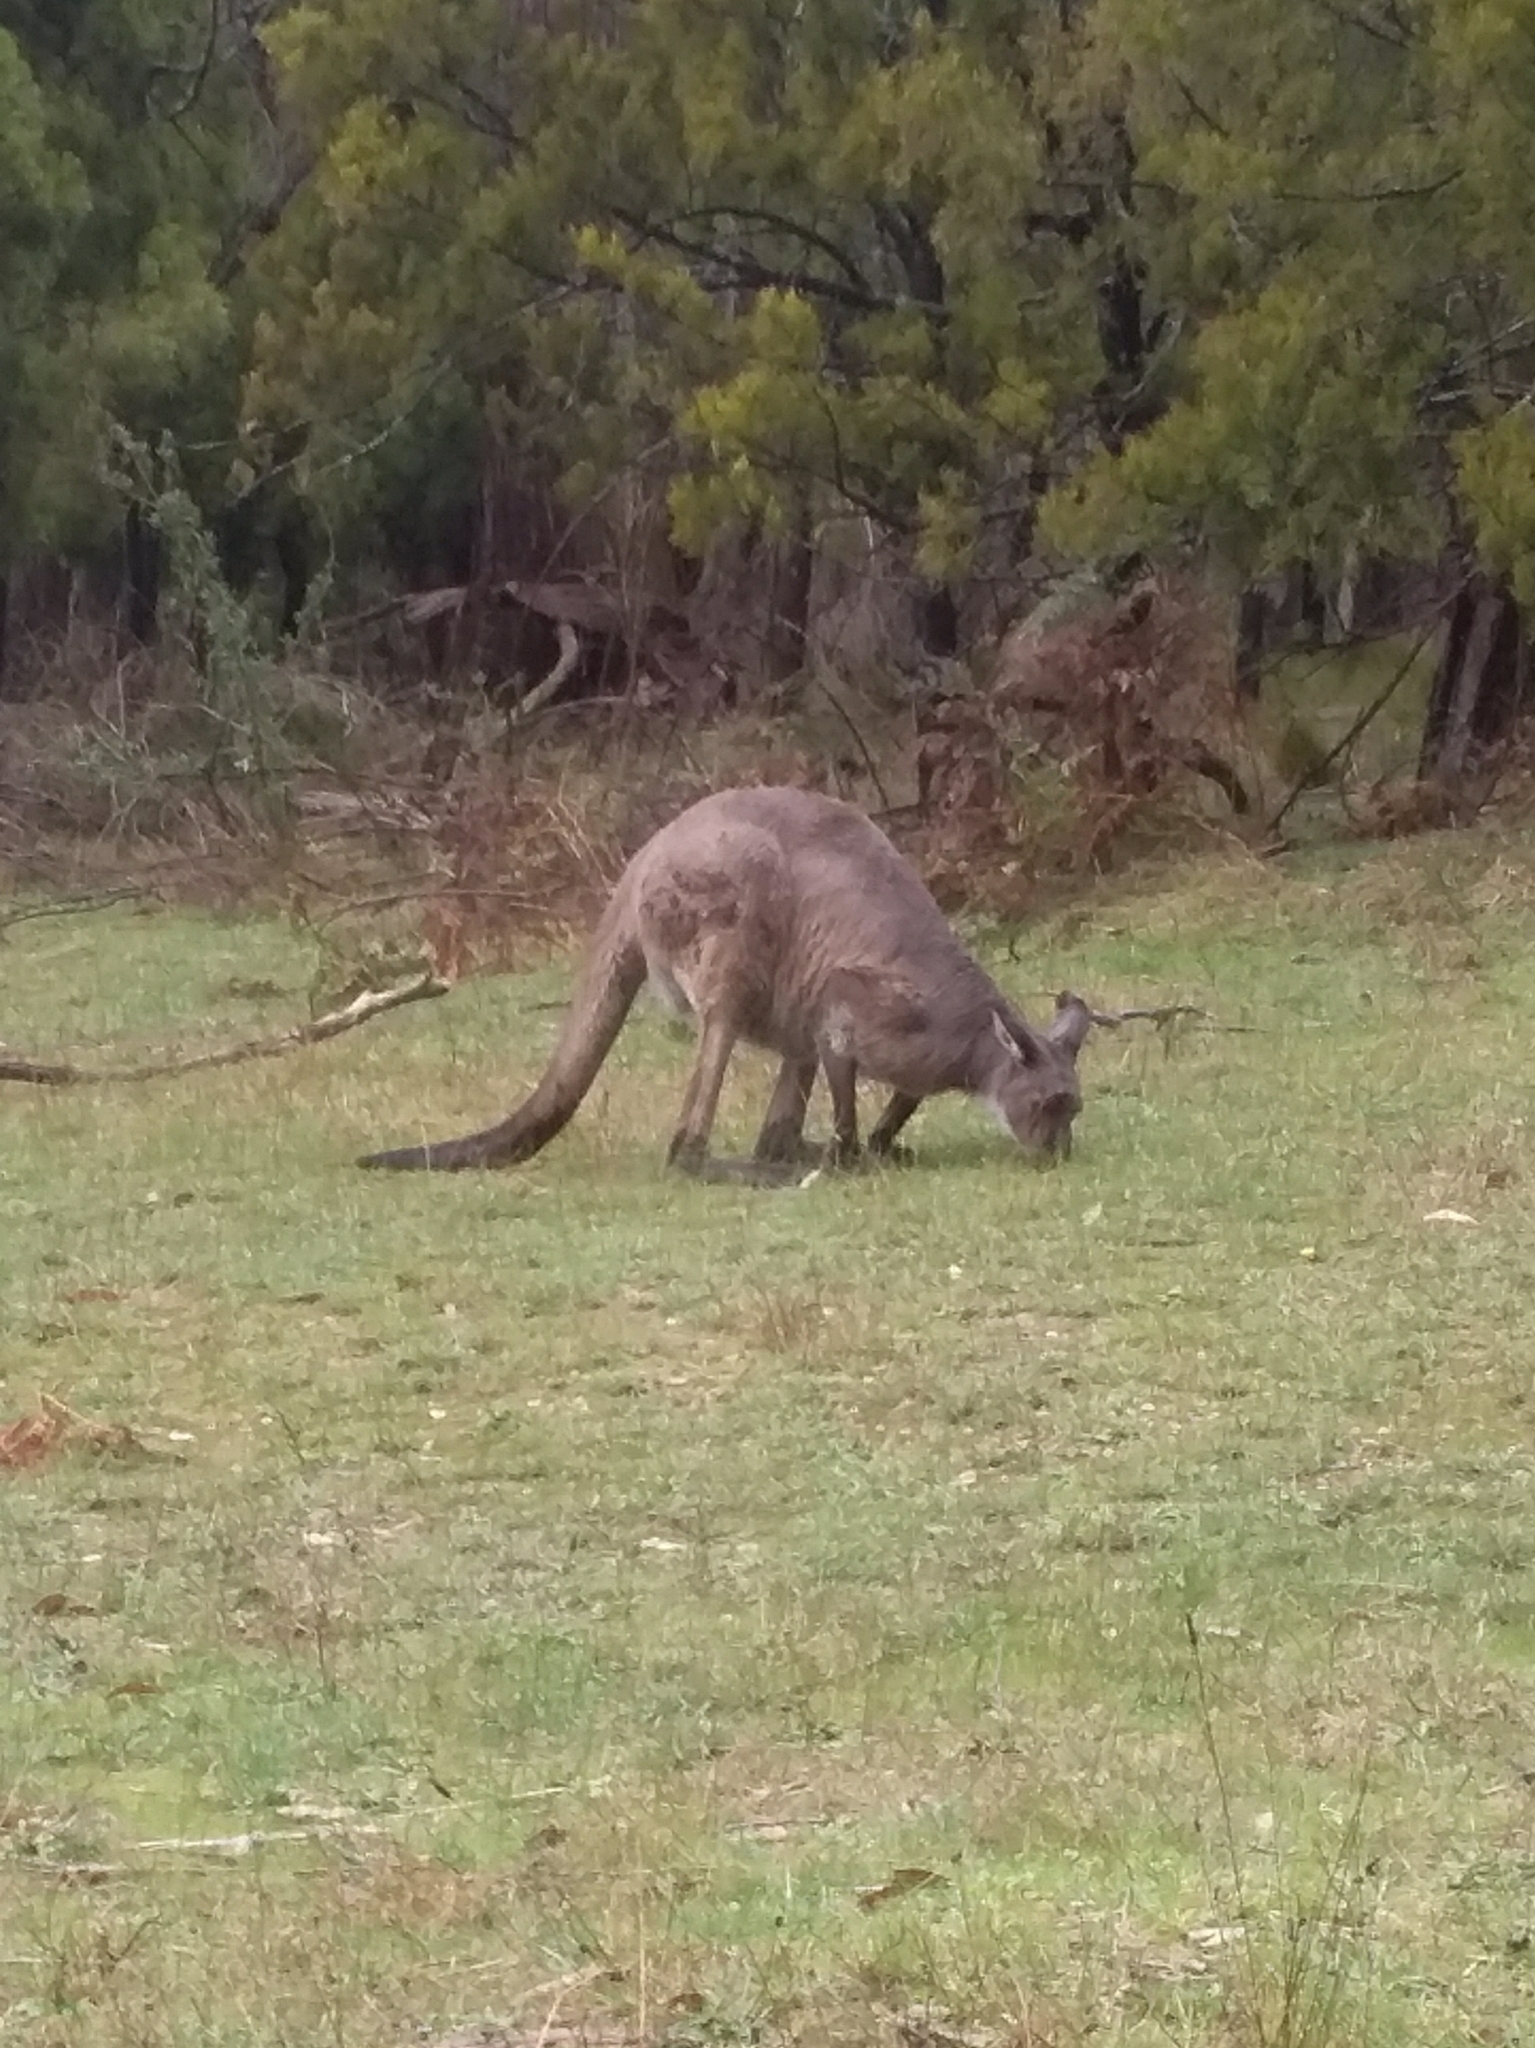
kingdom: Animalia
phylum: Chordata
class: Mammalia
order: Diprotodontia
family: Macropodidae
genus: Macropus
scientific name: Macropus fuliginosus
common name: Western grey kangaroo
